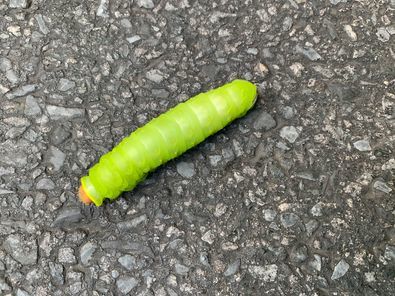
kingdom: Animalia
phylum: Arthropoda
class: Insecta
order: Lepidoptera
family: Saturniidae
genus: Antheraea
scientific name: Antheraea polyphemus
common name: Polyphemus moth
